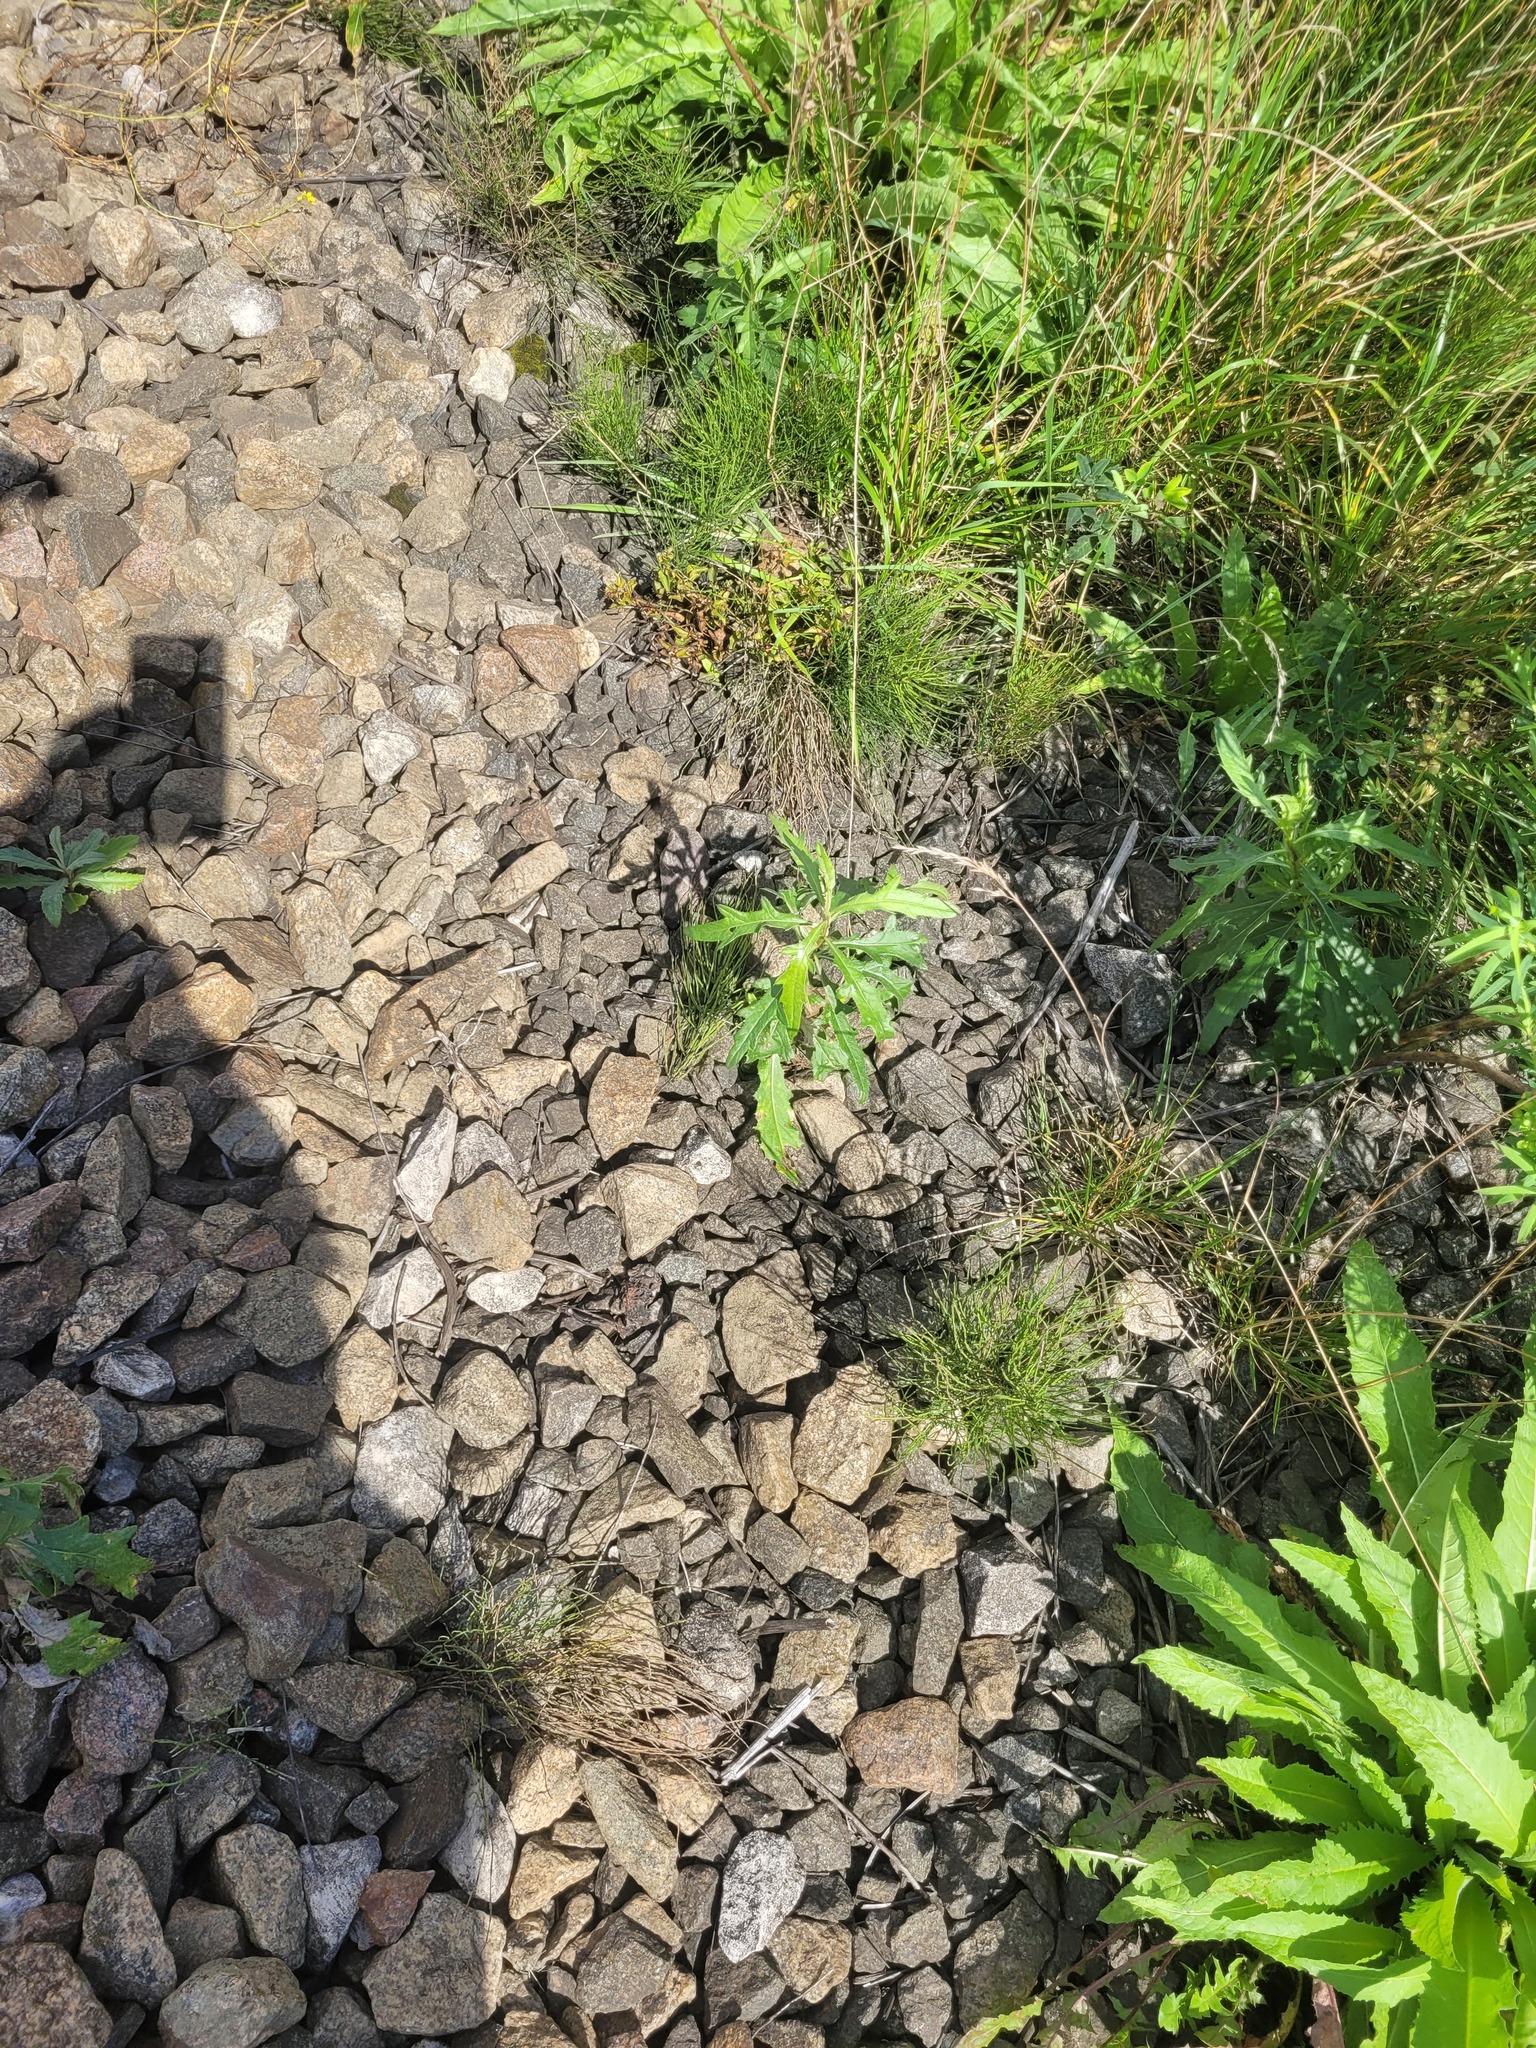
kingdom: Plantae
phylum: Tracheophyta
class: Magnoliopsida
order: Asterales
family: Asteraceae
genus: Cirsium
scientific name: Cirsium arvense
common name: Creeping thistle
